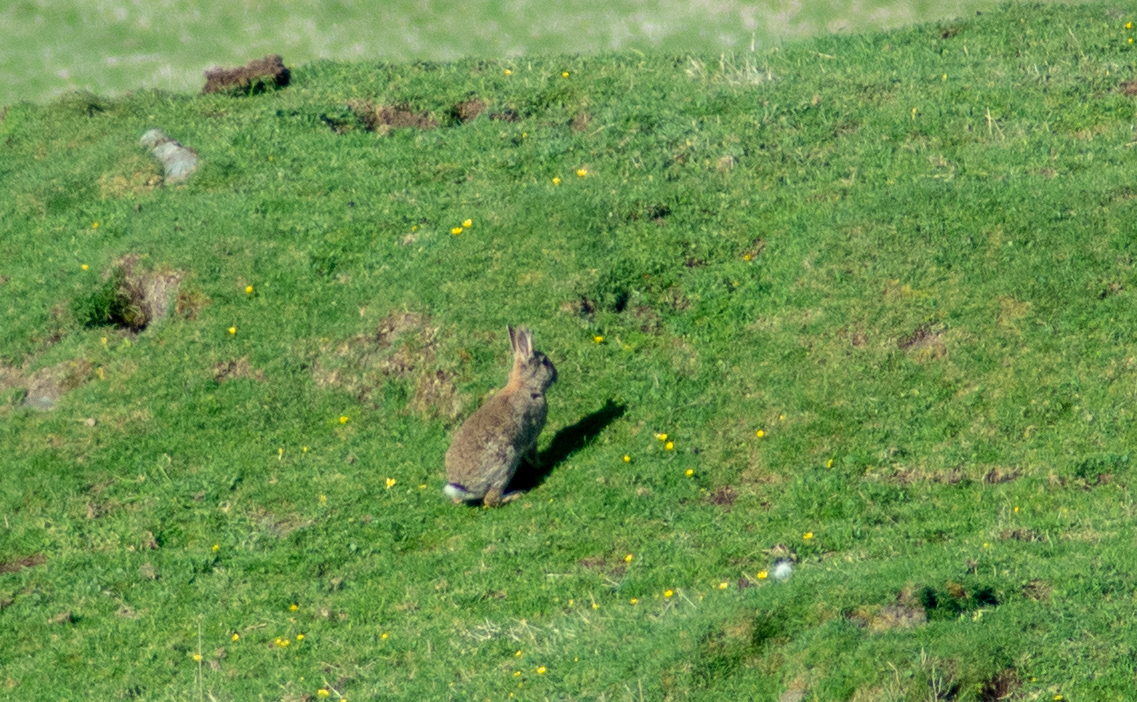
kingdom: Animalia
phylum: Chordata
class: Mammalia
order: Lagomorpha
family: Leporidae
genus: Oryctolagus
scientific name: Oryctolagus cuniculus
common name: European rabbit
